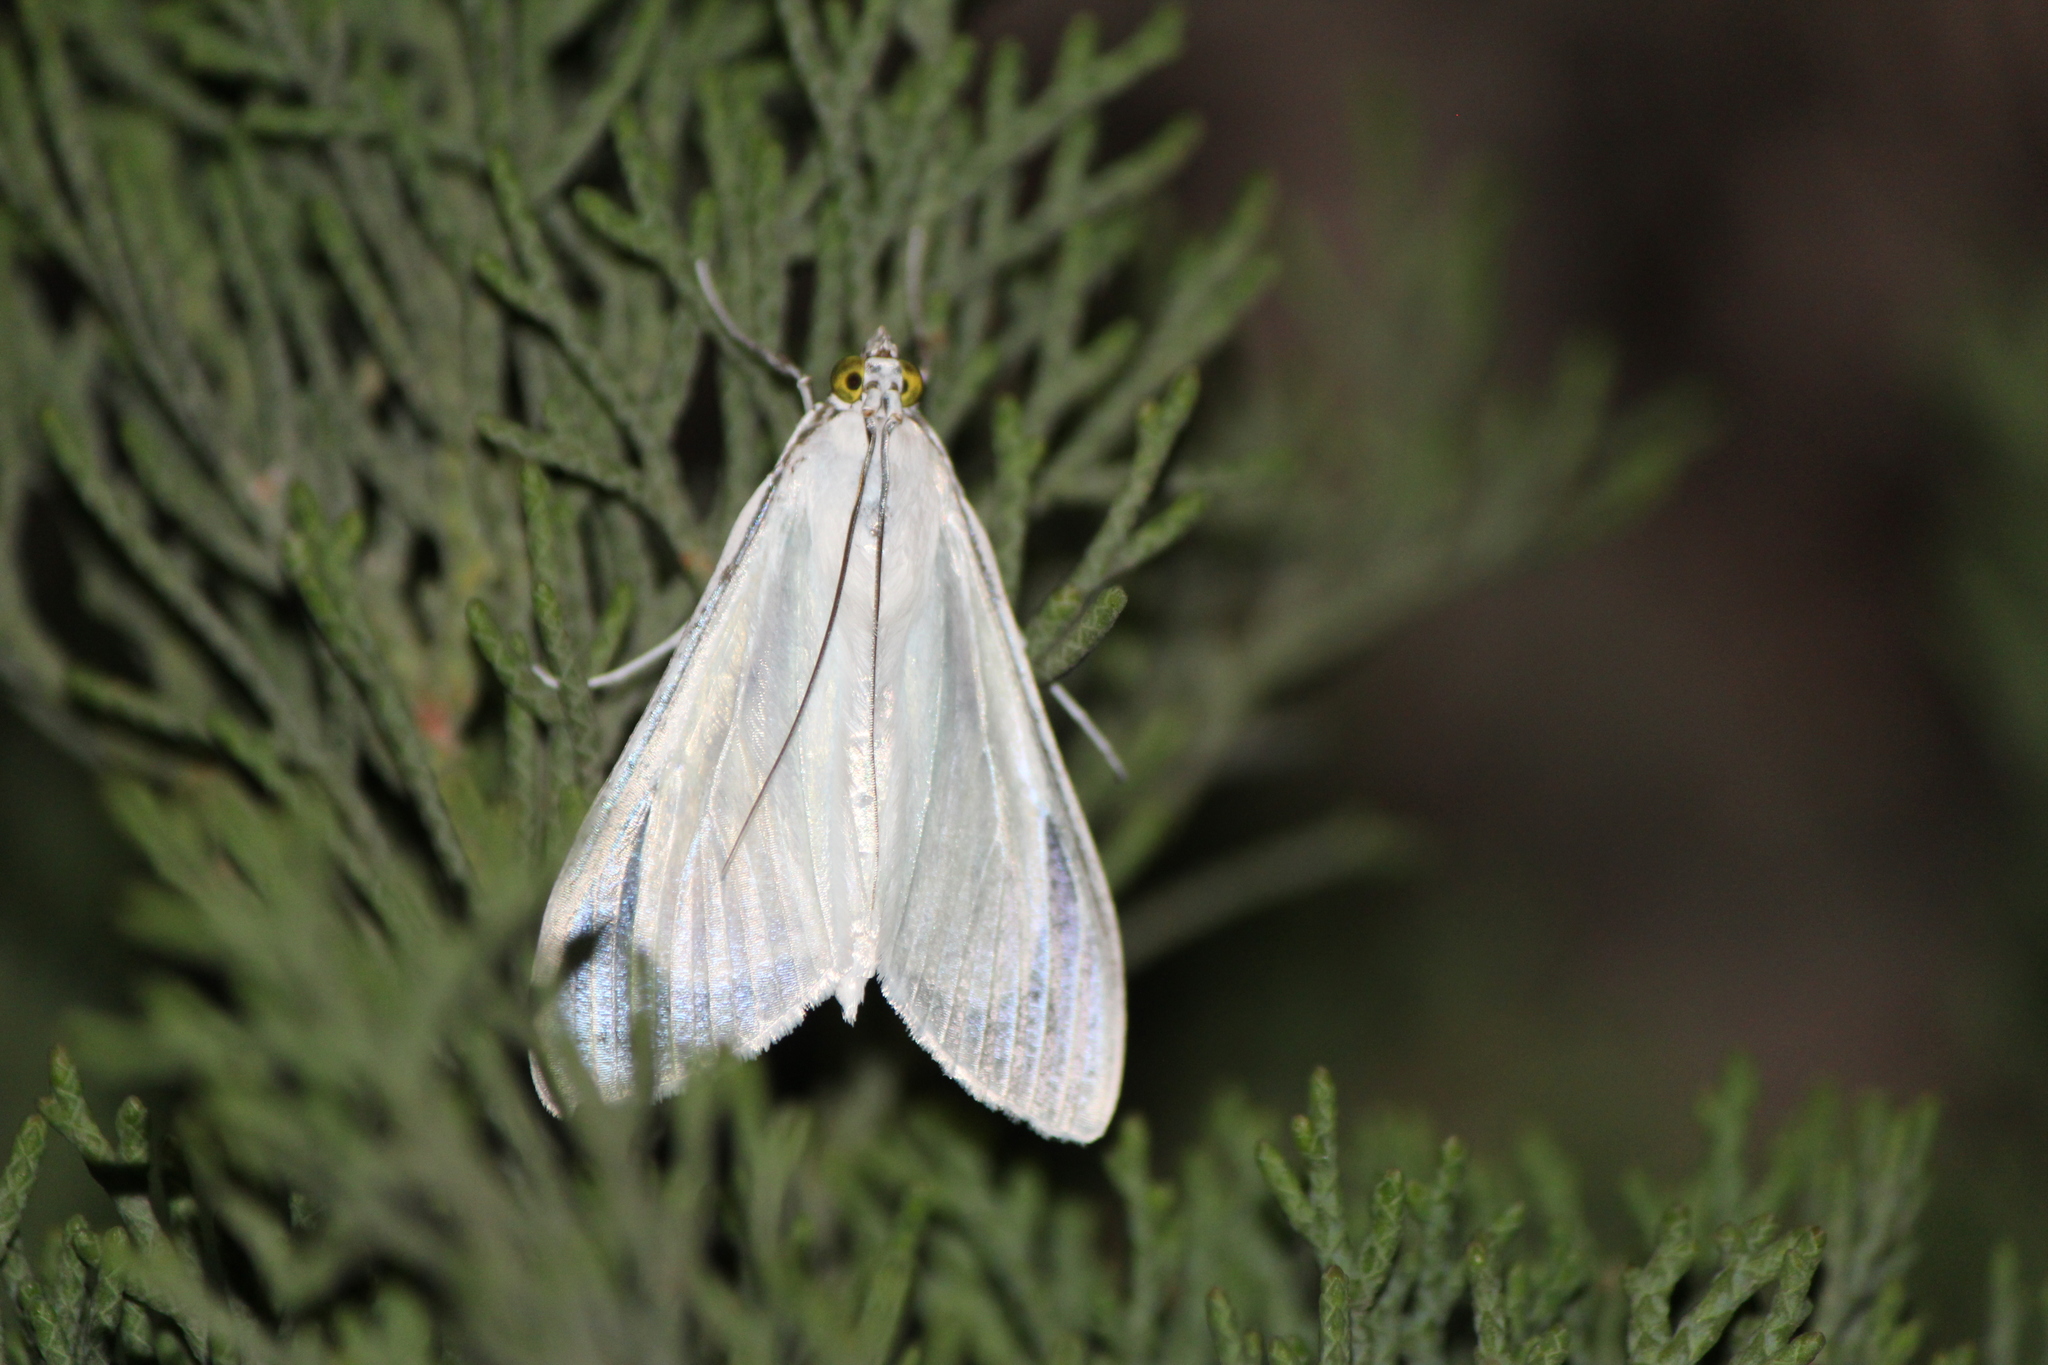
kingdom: Animalia
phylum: Arthropoda
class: Insecta
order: Lepidoptera
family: Crambidae
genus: Palpita
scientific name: Palpita flegia
